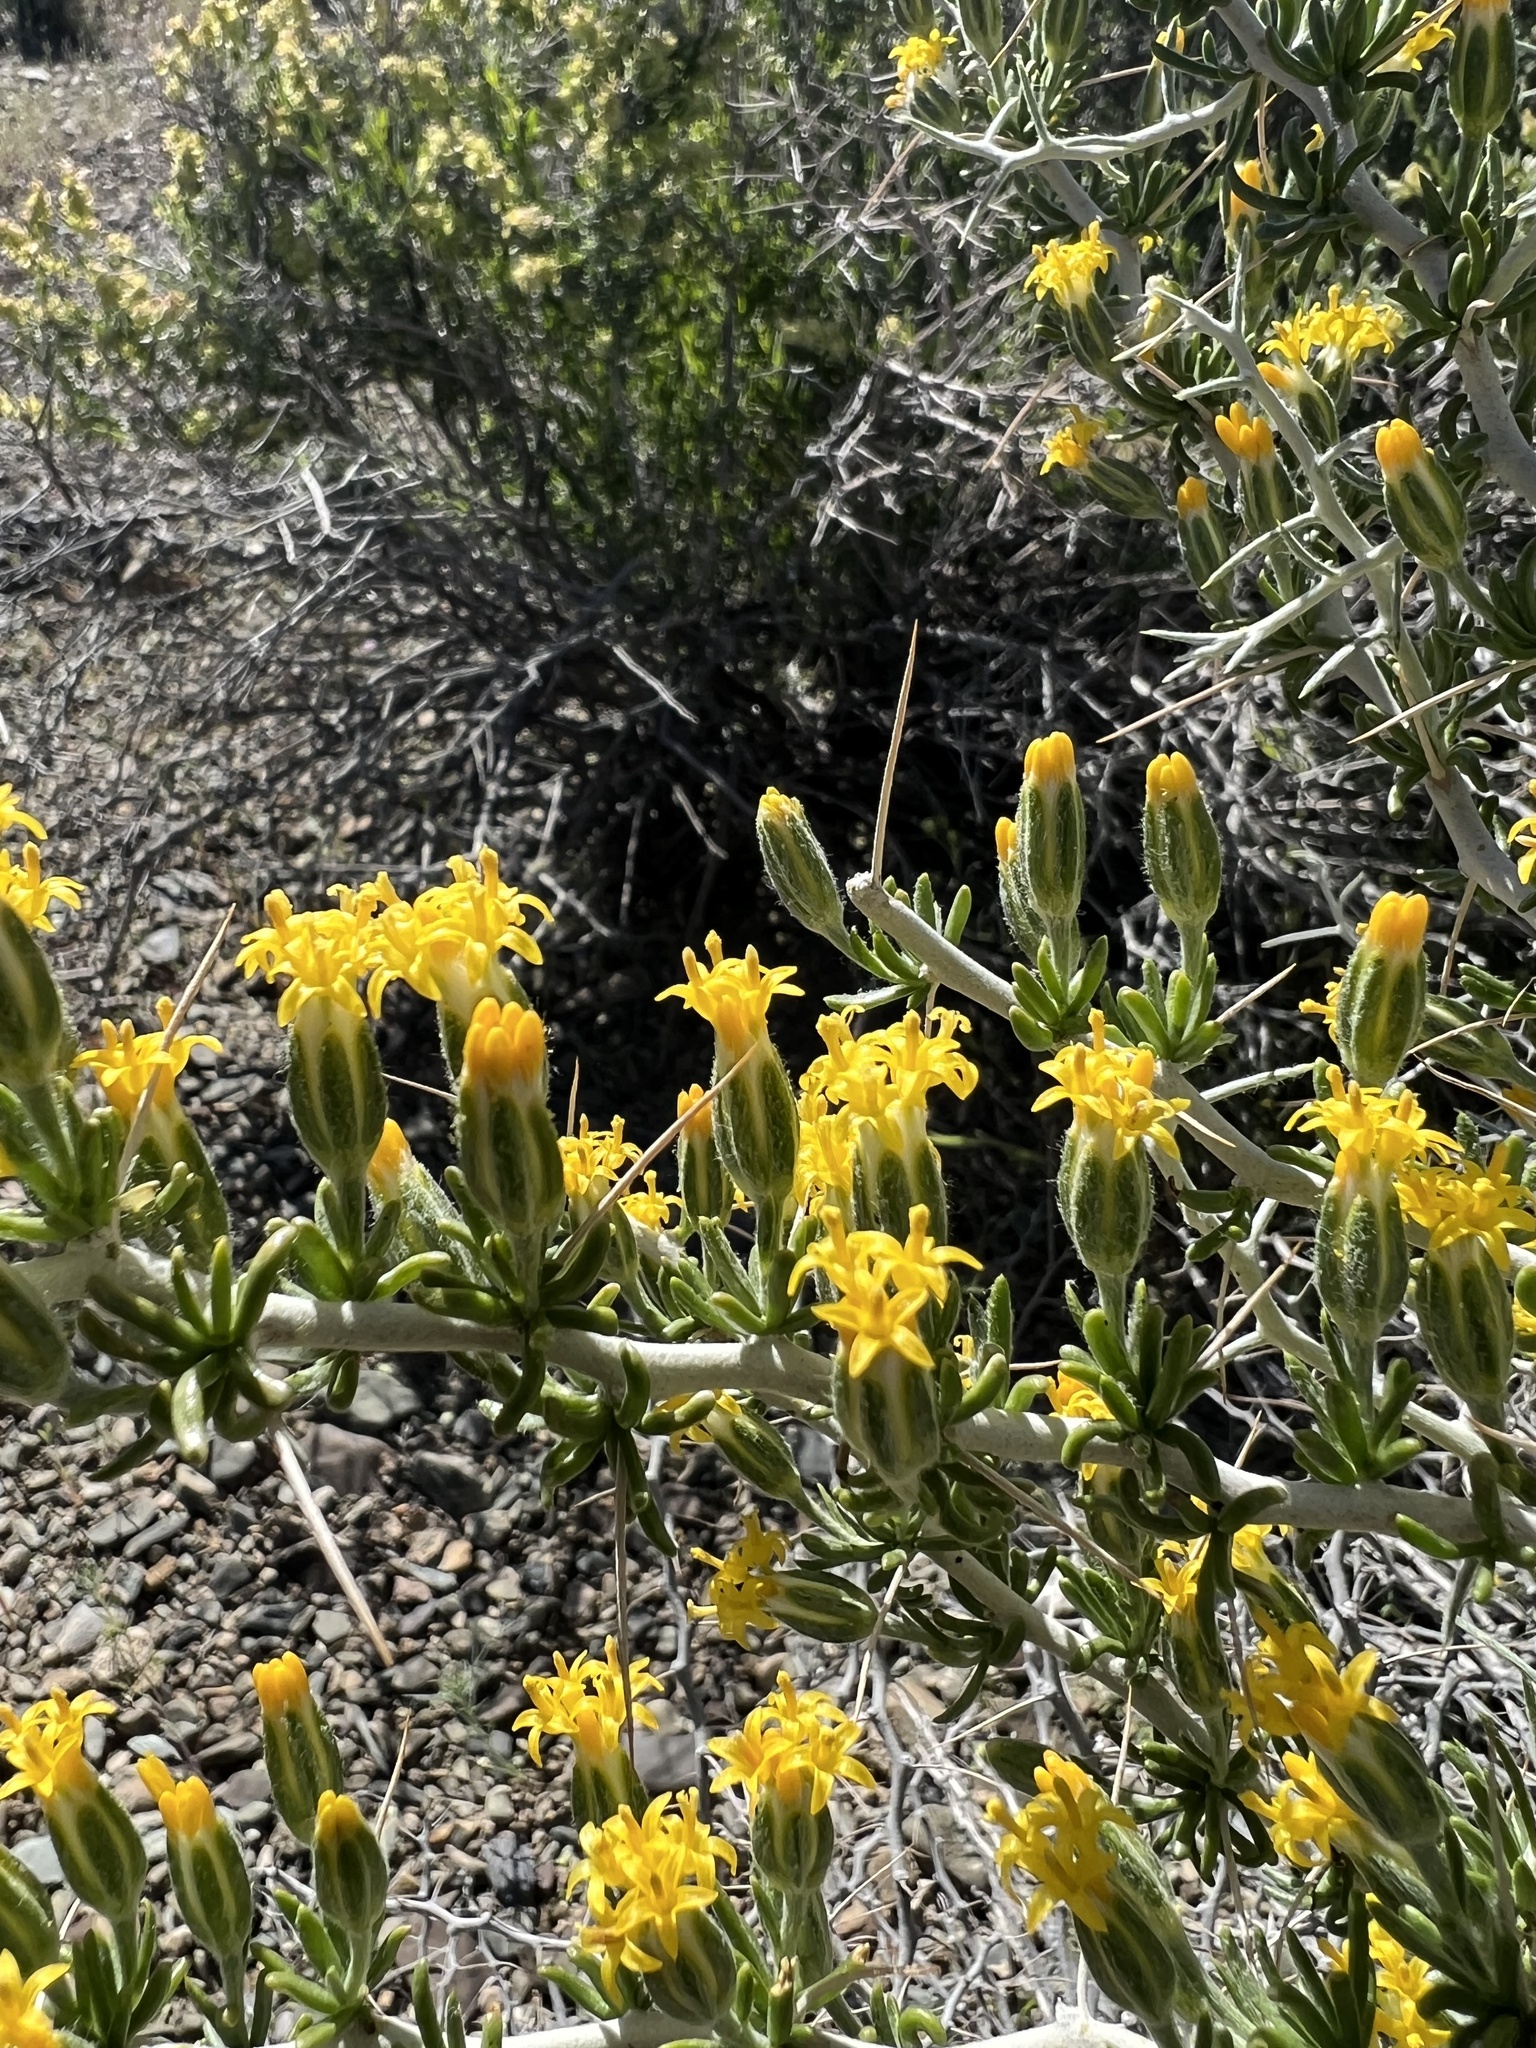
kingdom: Plantae
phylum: Tracheophyta
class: Magnoliopsida
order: Asterales
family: Asteraceae
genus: Tetradymia
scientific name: Tetradymia axillaris
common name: Long-spine horsebrush
